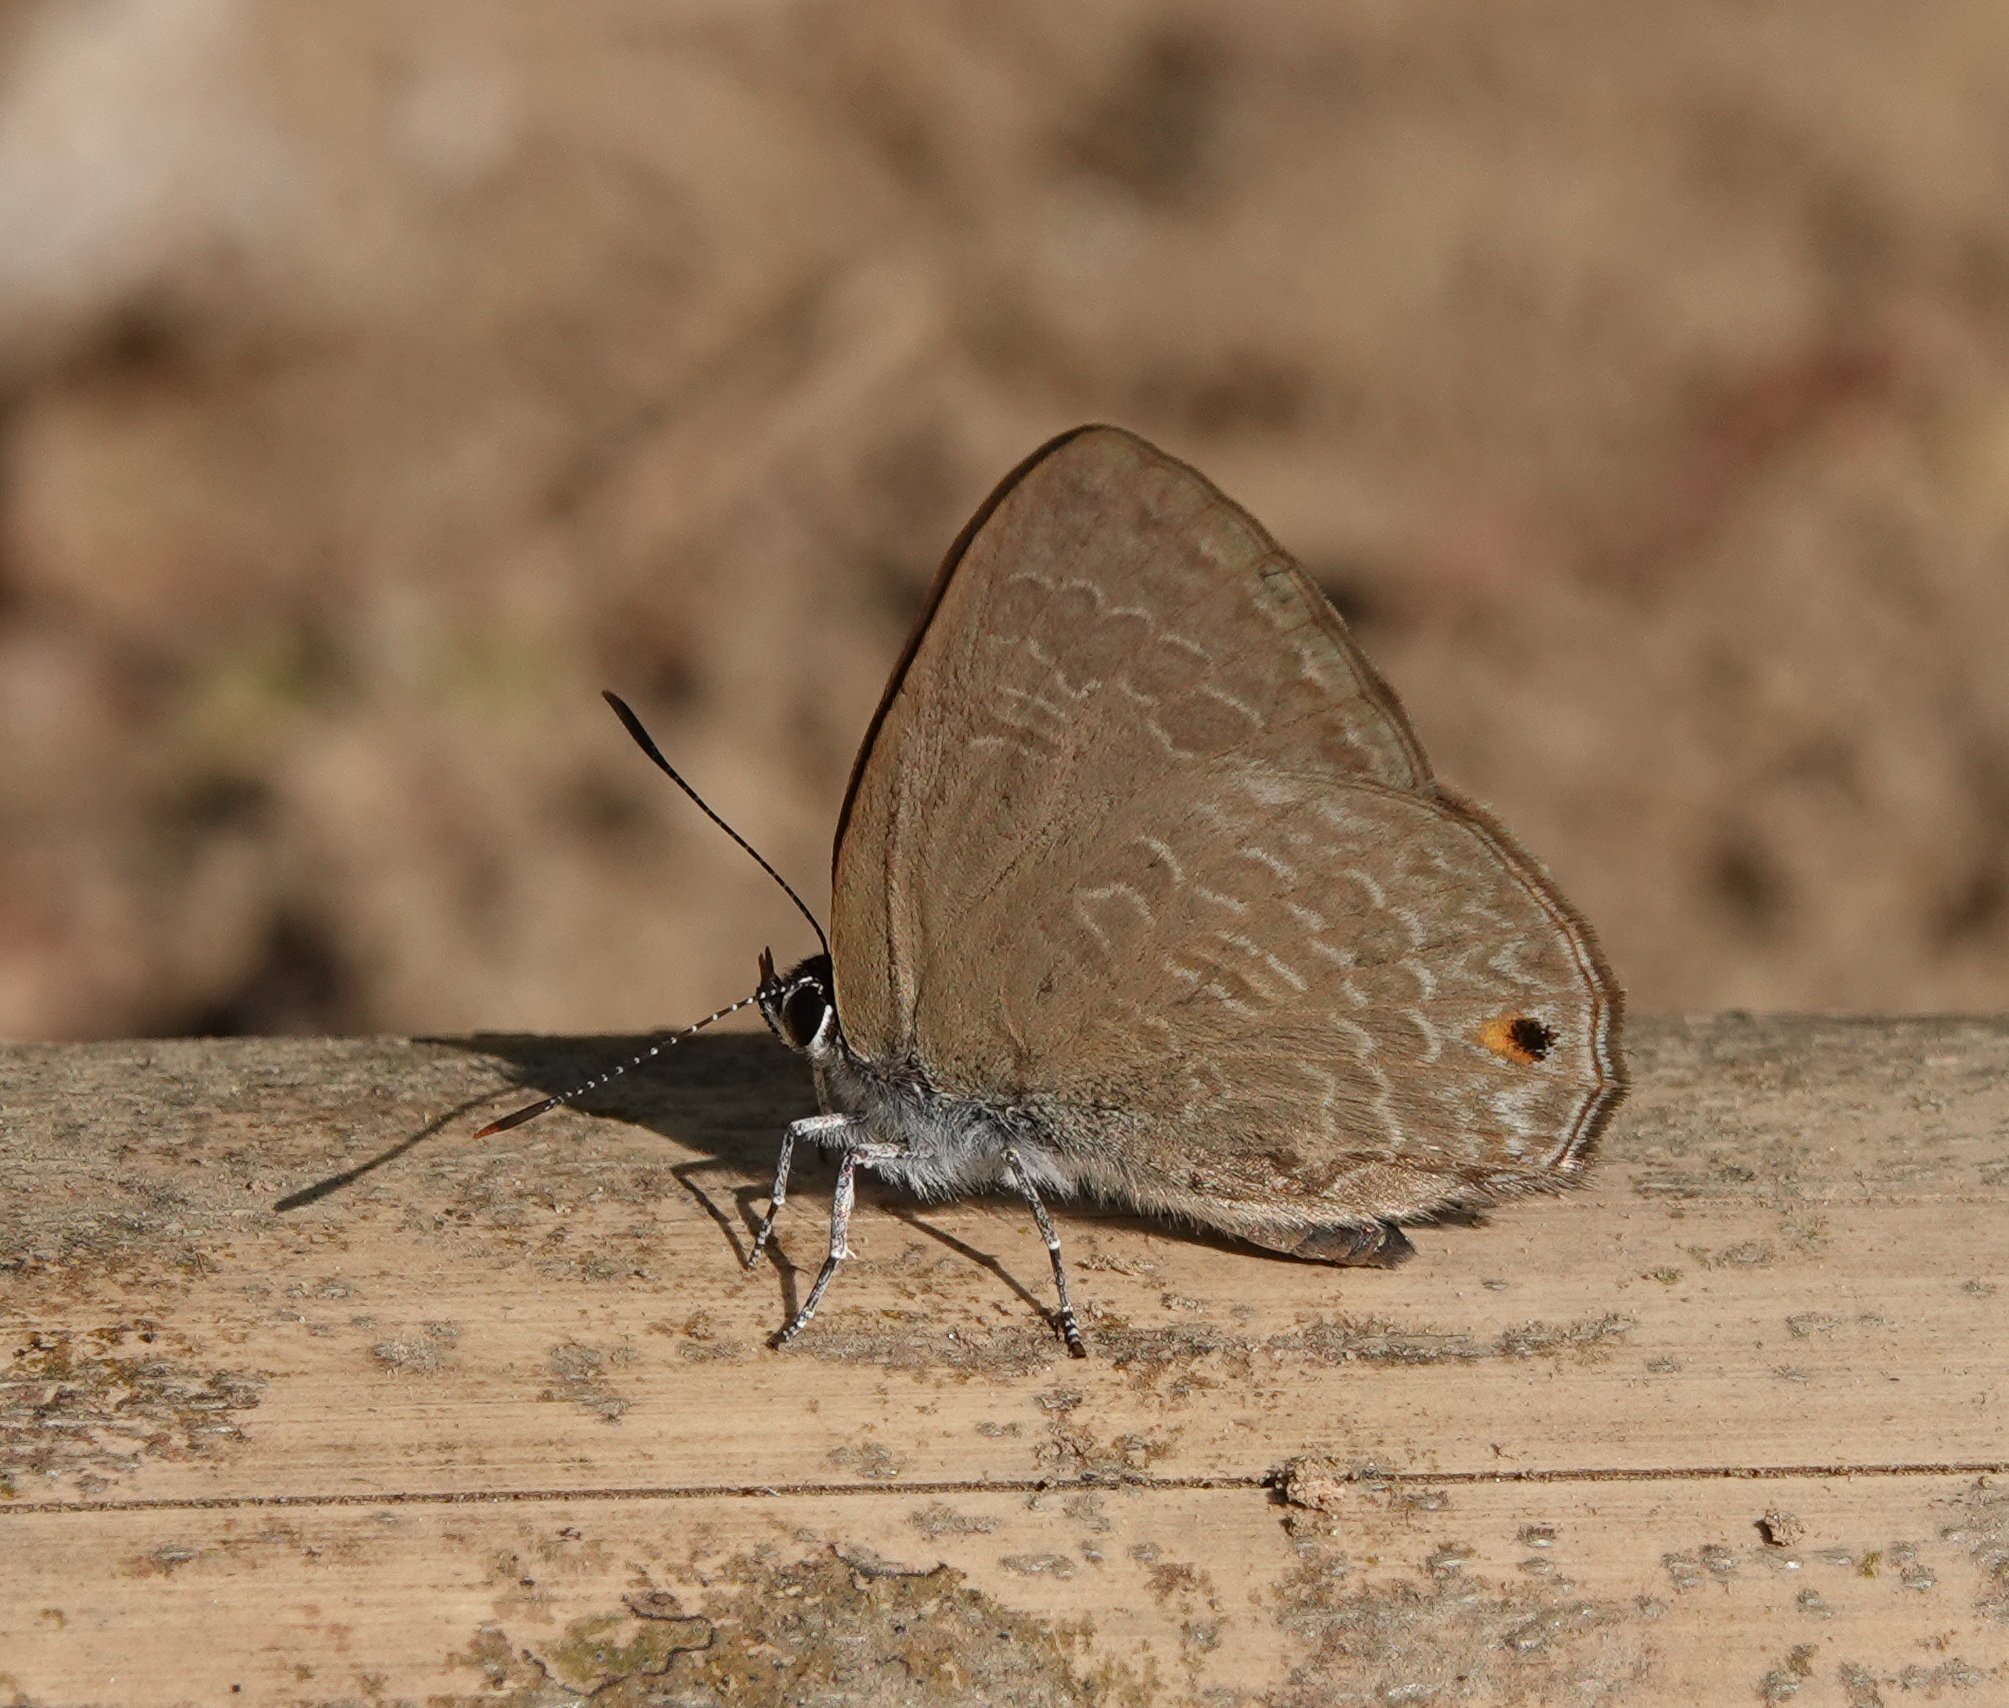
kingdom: Animalia
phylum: Arthropoda
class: Insecta
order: Lepidoptera
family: Lycaenidae
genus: Anthene
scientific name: Anthene emolus
